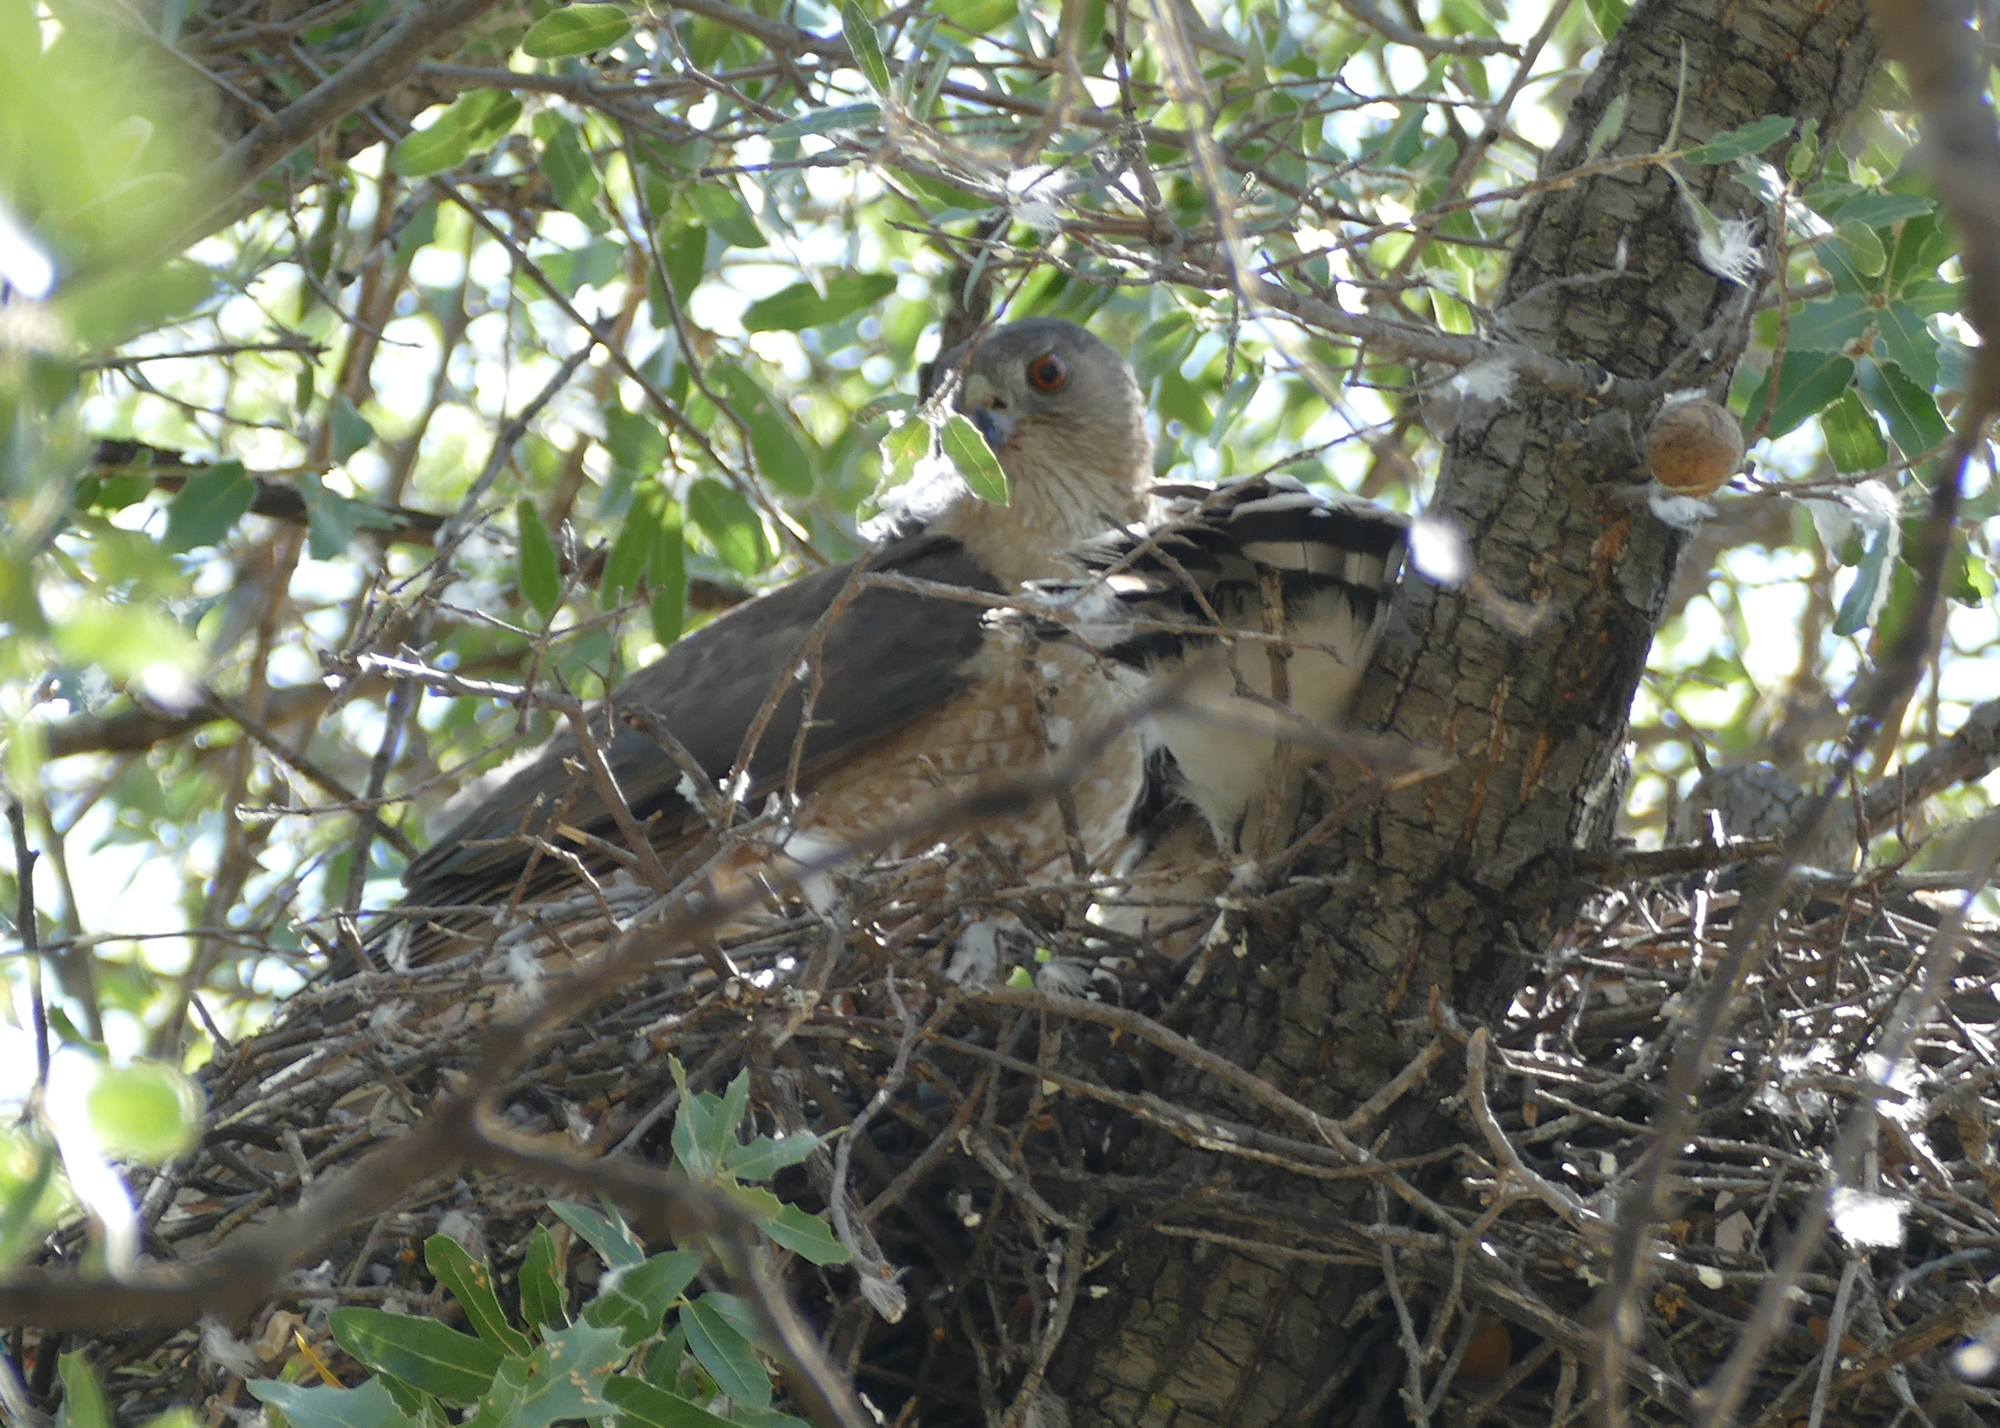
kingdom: Animalia
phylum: Chordata
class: Aves
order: Accipitriformes
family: Accipitridae
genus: Accipiter
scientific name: Accipiter cooperii
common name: Cooper's hawk
